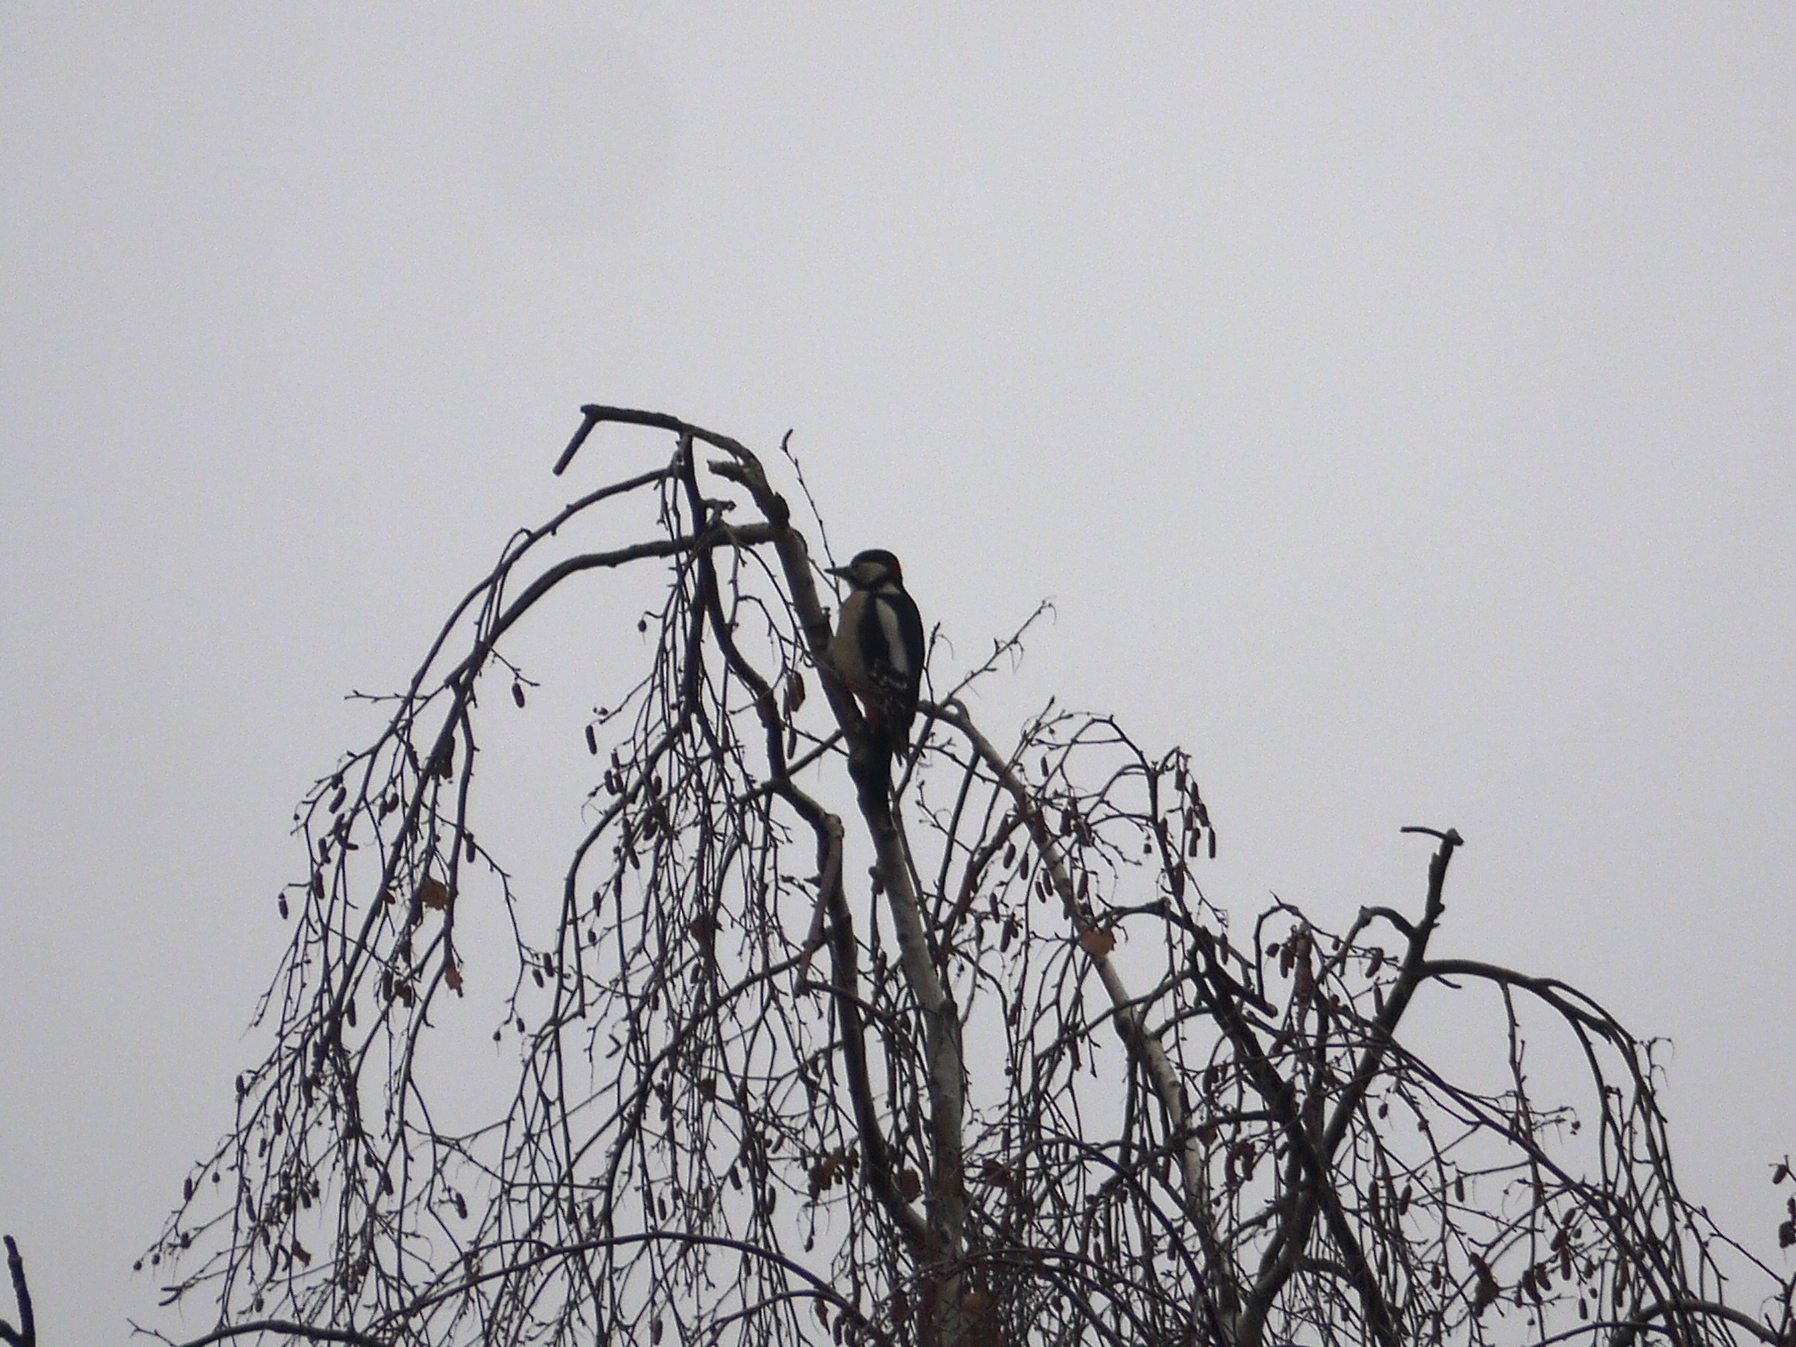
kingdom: Animalia
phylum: Chordata
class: Aves
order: Piciformes
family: Picidae
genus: Dendrocopos
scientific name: Dendrocopos major
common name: Great spotted woodpecker
